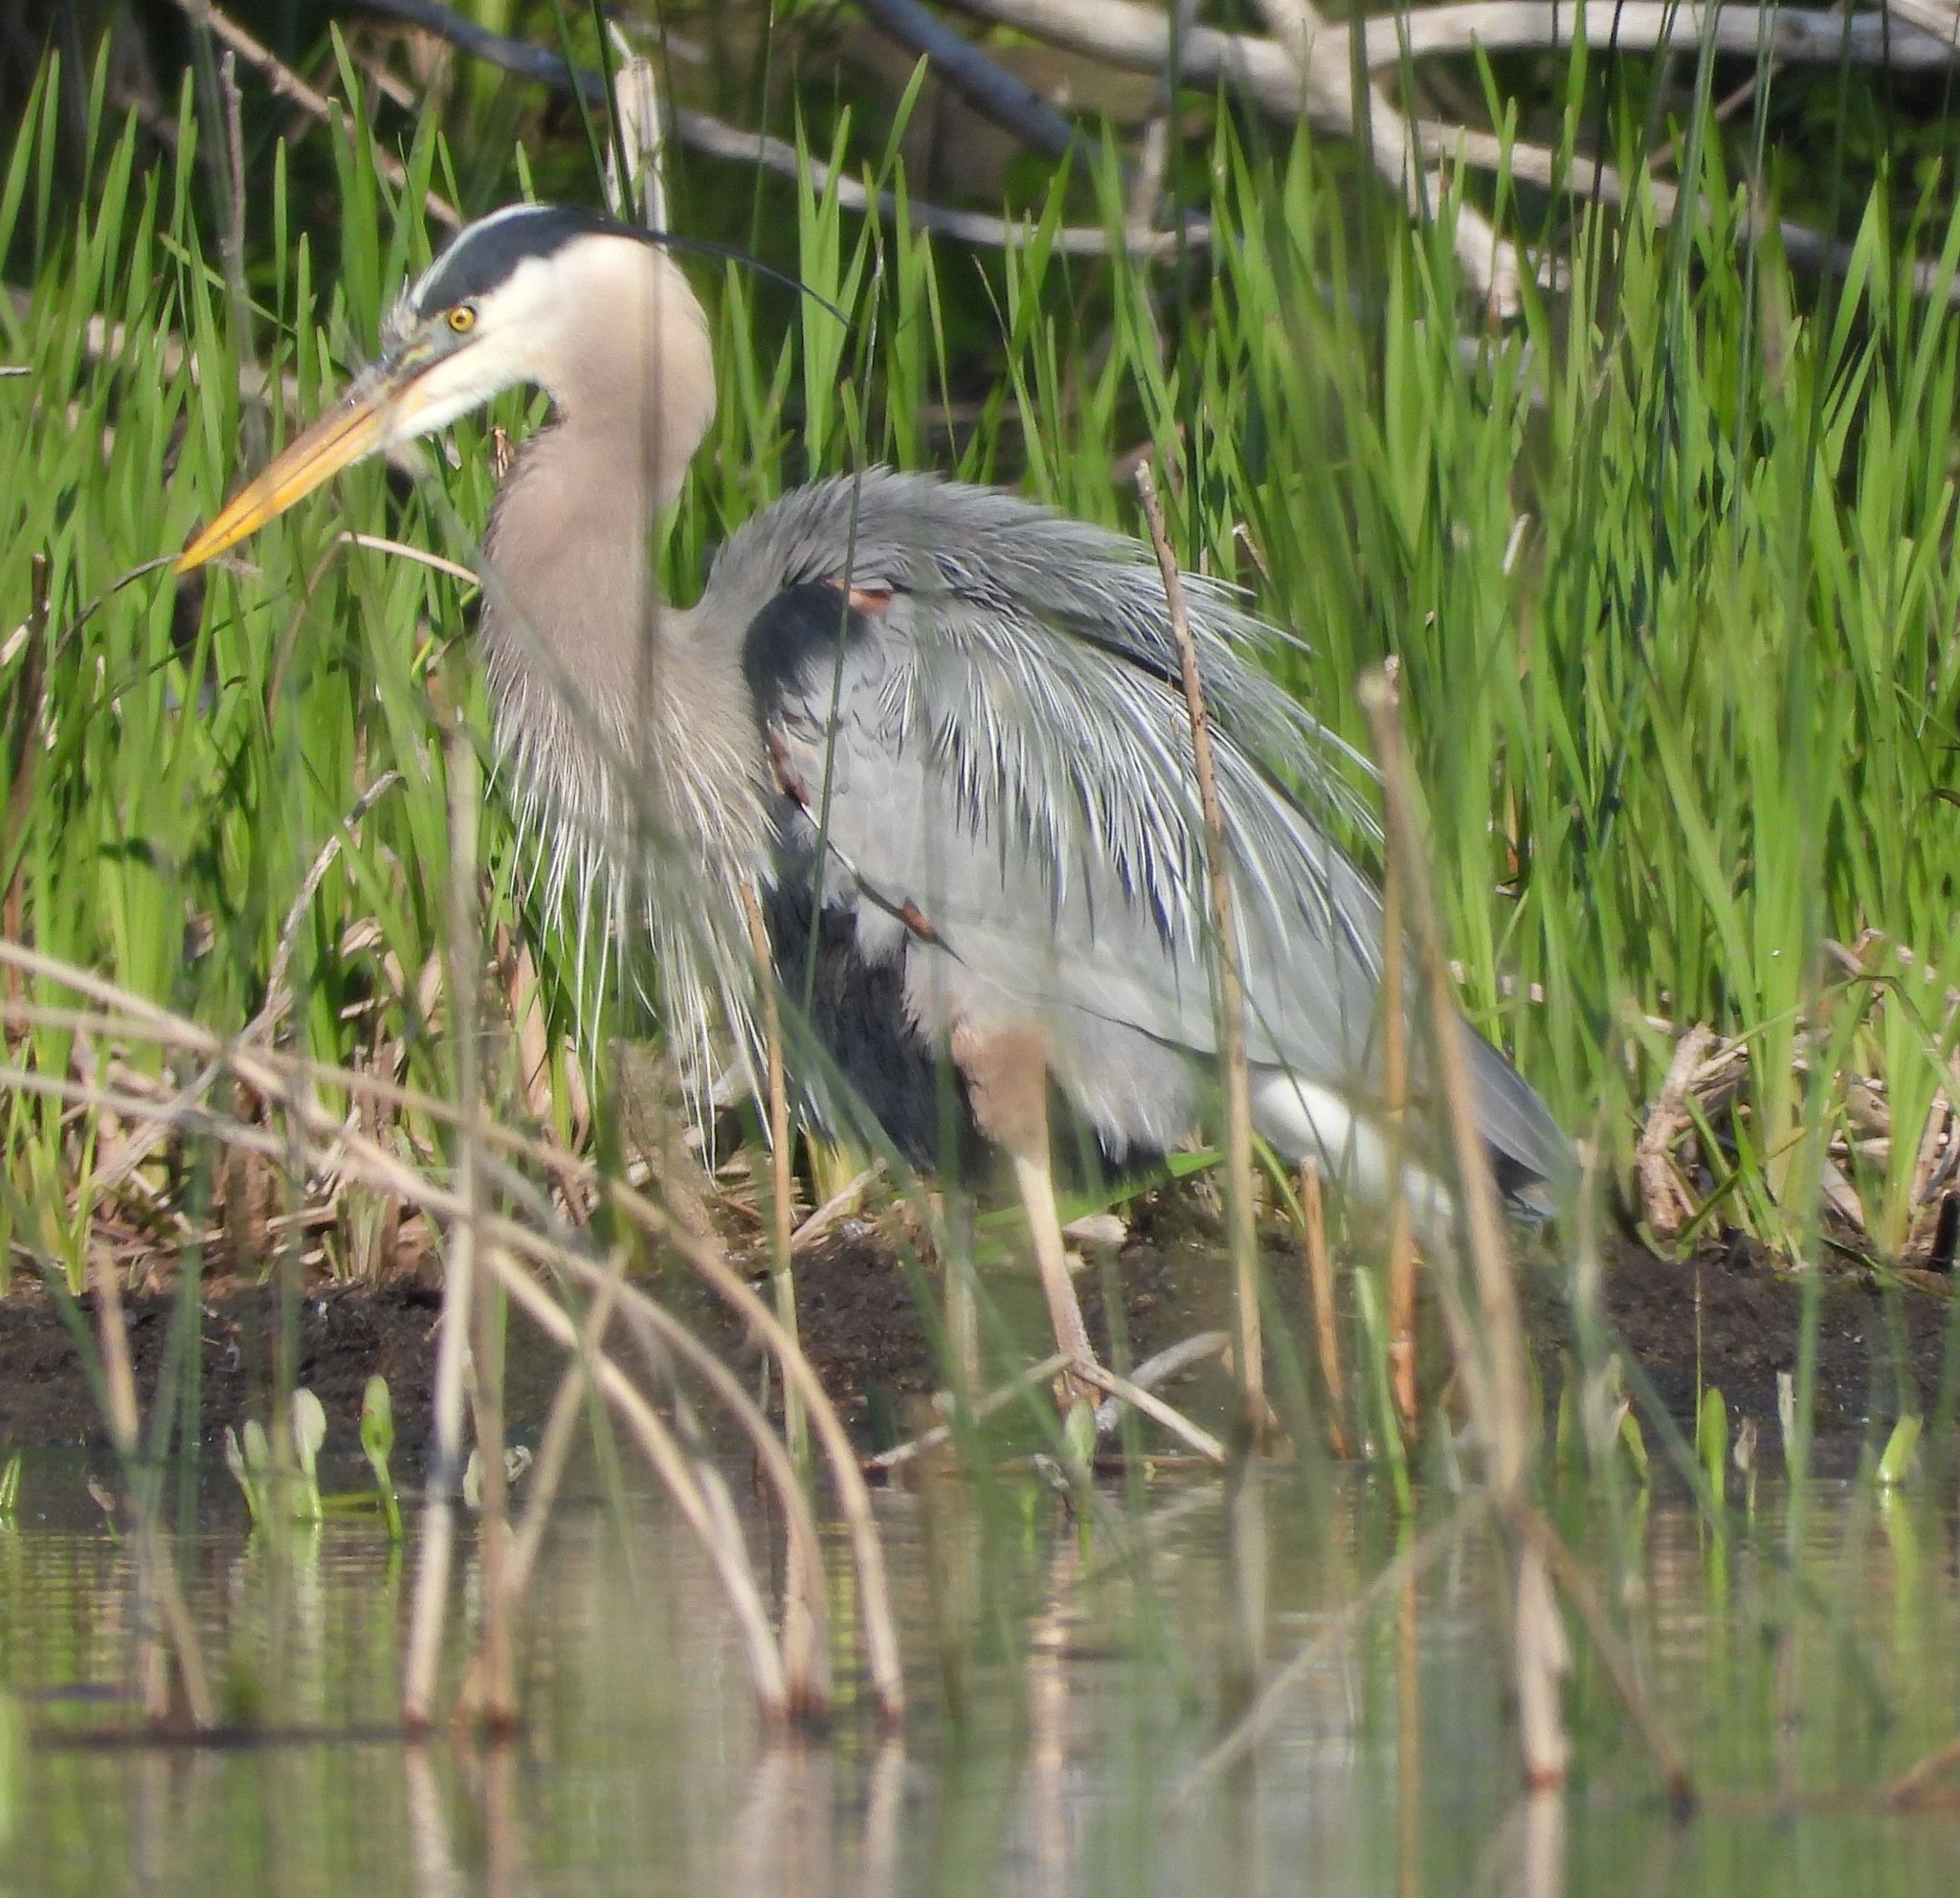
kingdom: Animalia
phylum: Chordata
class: Aves
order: Pelecaniformes
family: Ardeidae
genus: Ardea
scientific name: Ardea herodias
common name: Great blue heron
